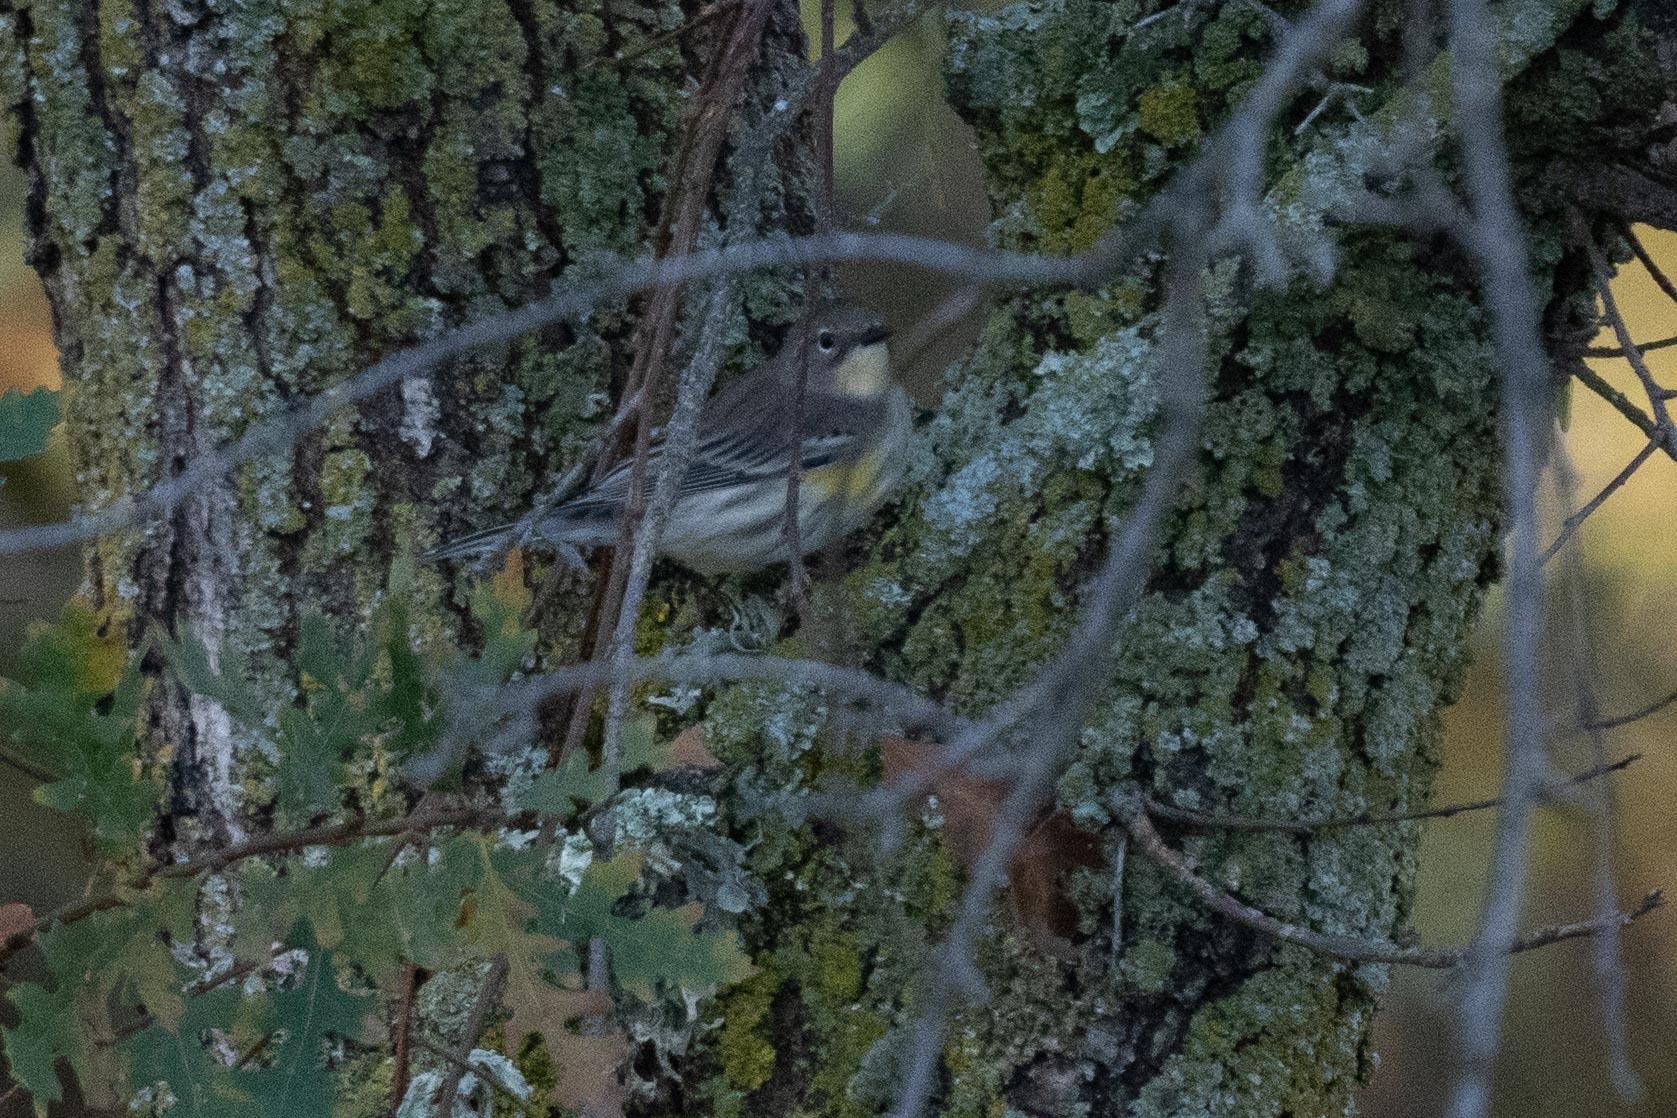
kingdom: Animalia
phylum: Chordata
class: Aves
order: Passeriformes
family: Parulidae
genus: Setophaga
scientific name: Setophaga coronata
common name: Myrtle warbler
